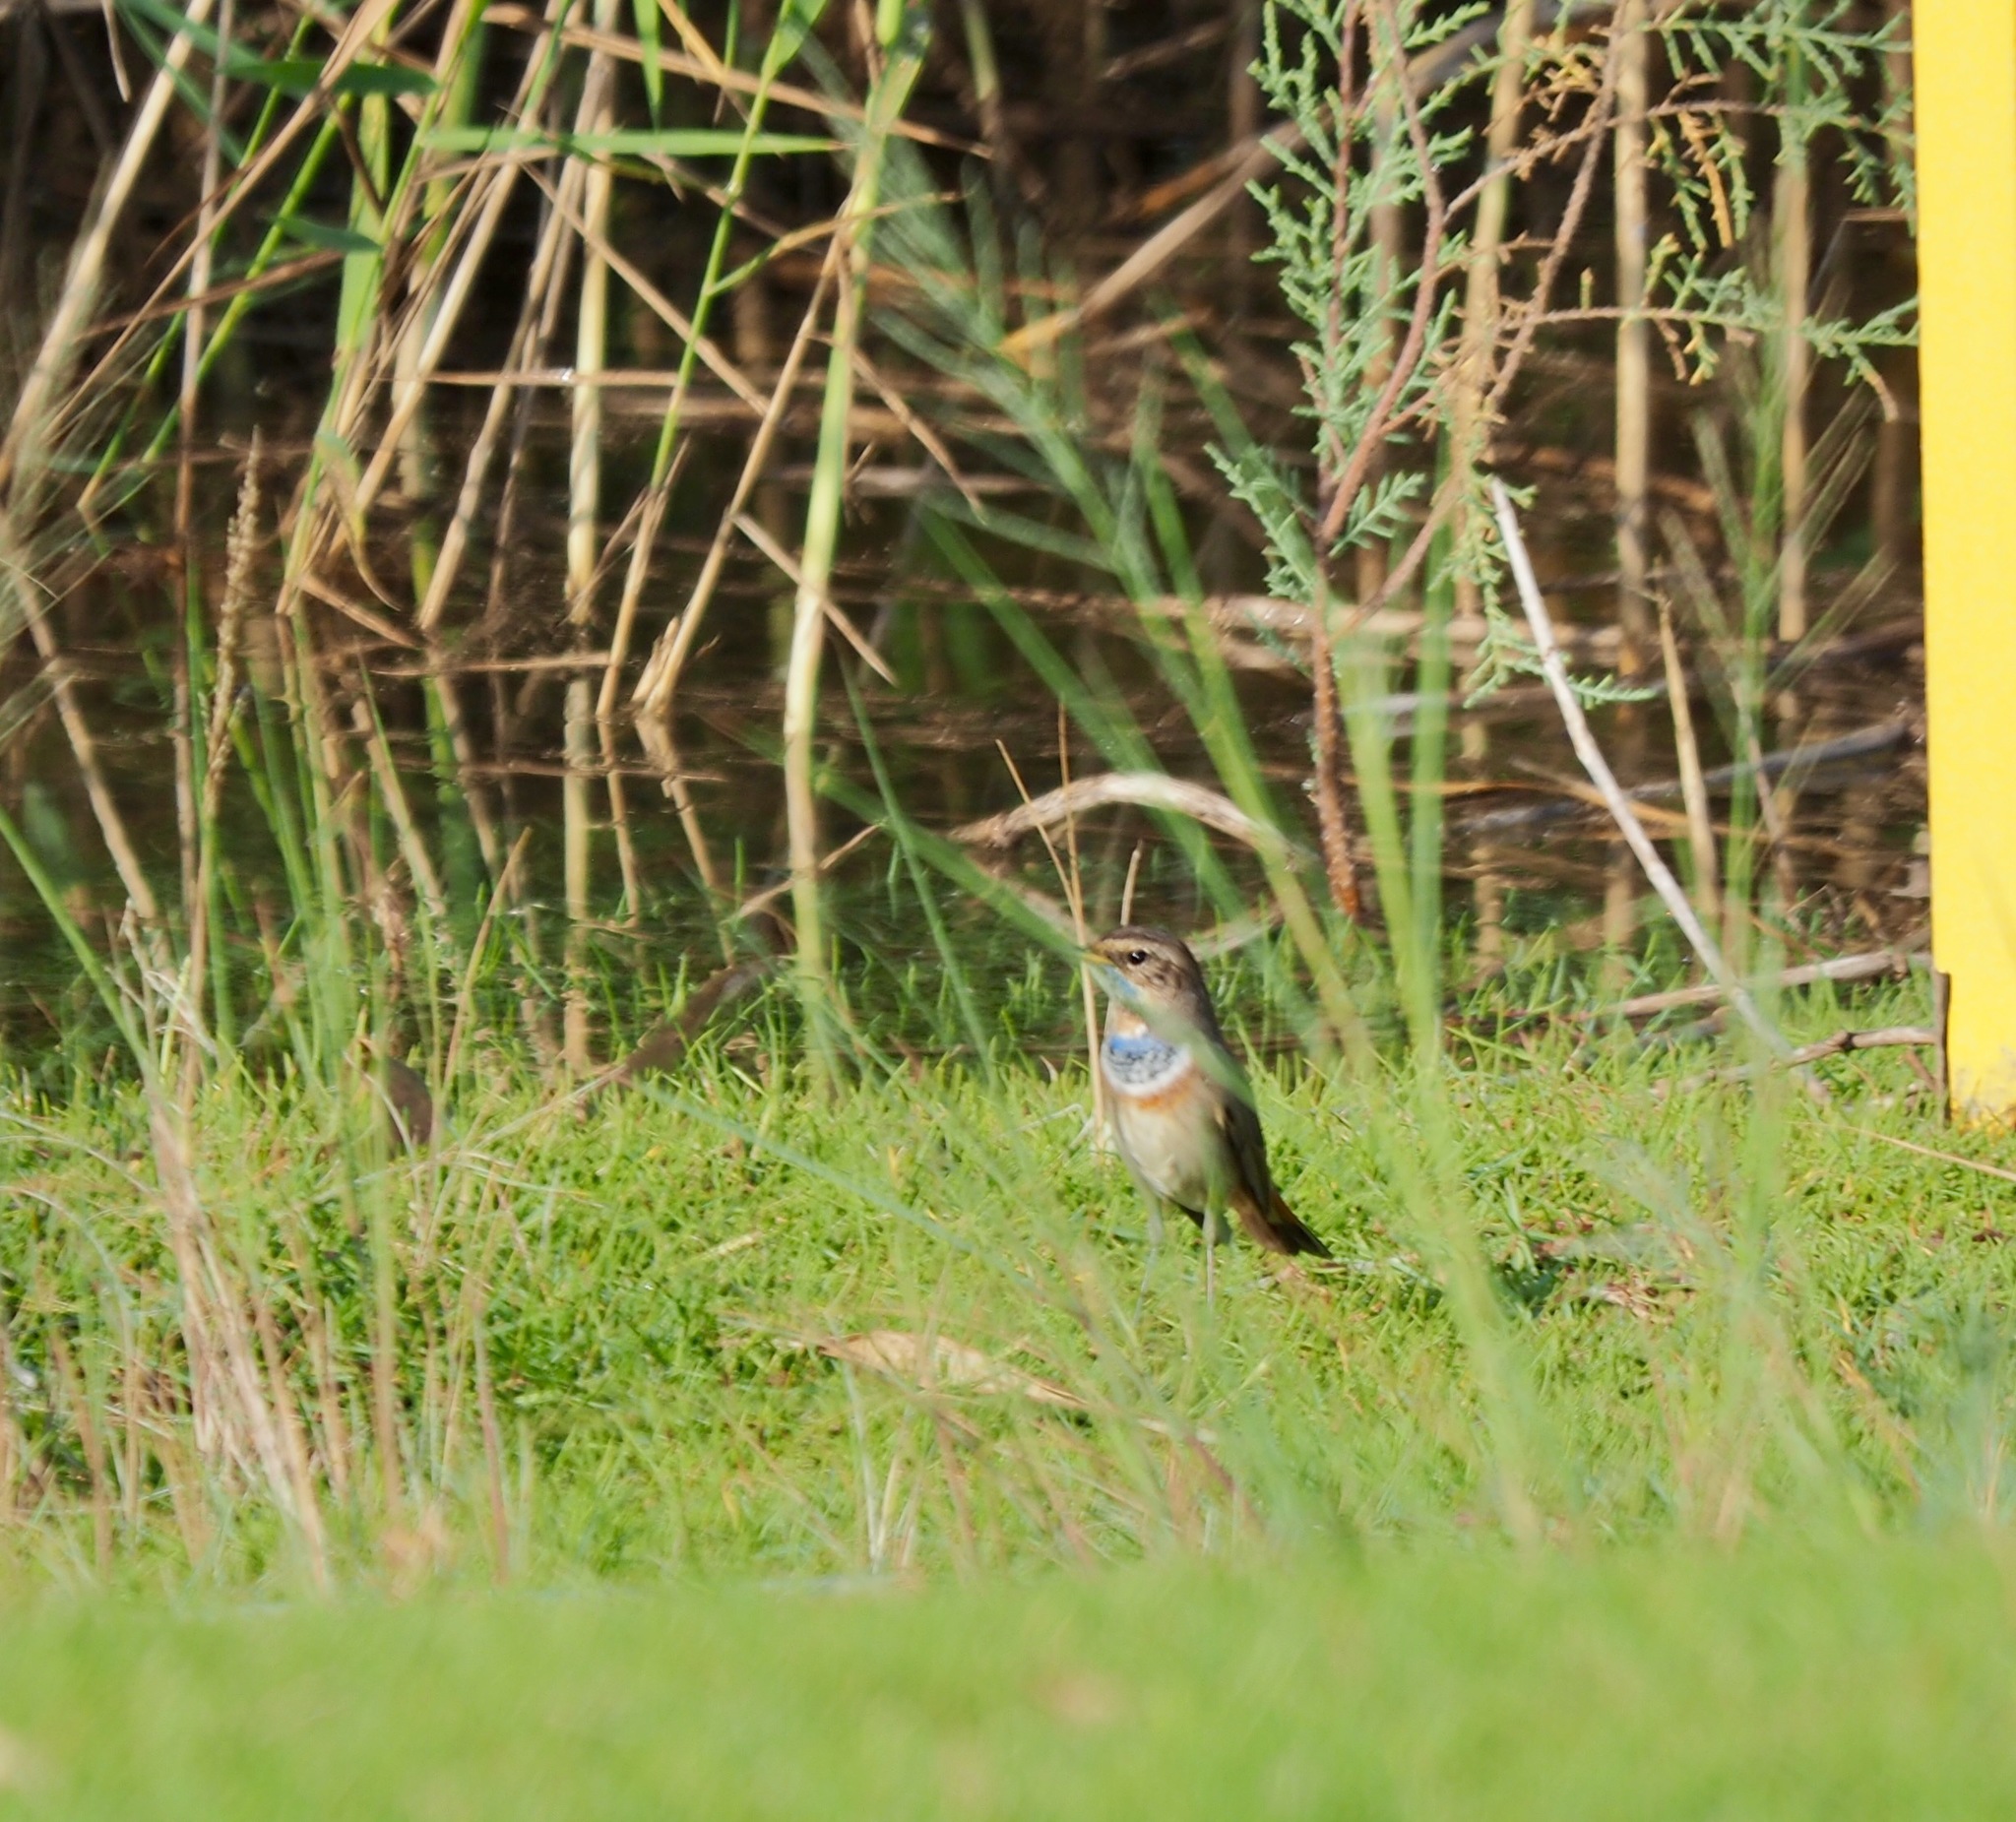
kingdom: Animalia
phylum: Chordata
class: Aves
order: Passeriformes
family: Muscicapidae
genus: Luscinia
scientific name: Luscinia svecica
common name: Bluethroat
